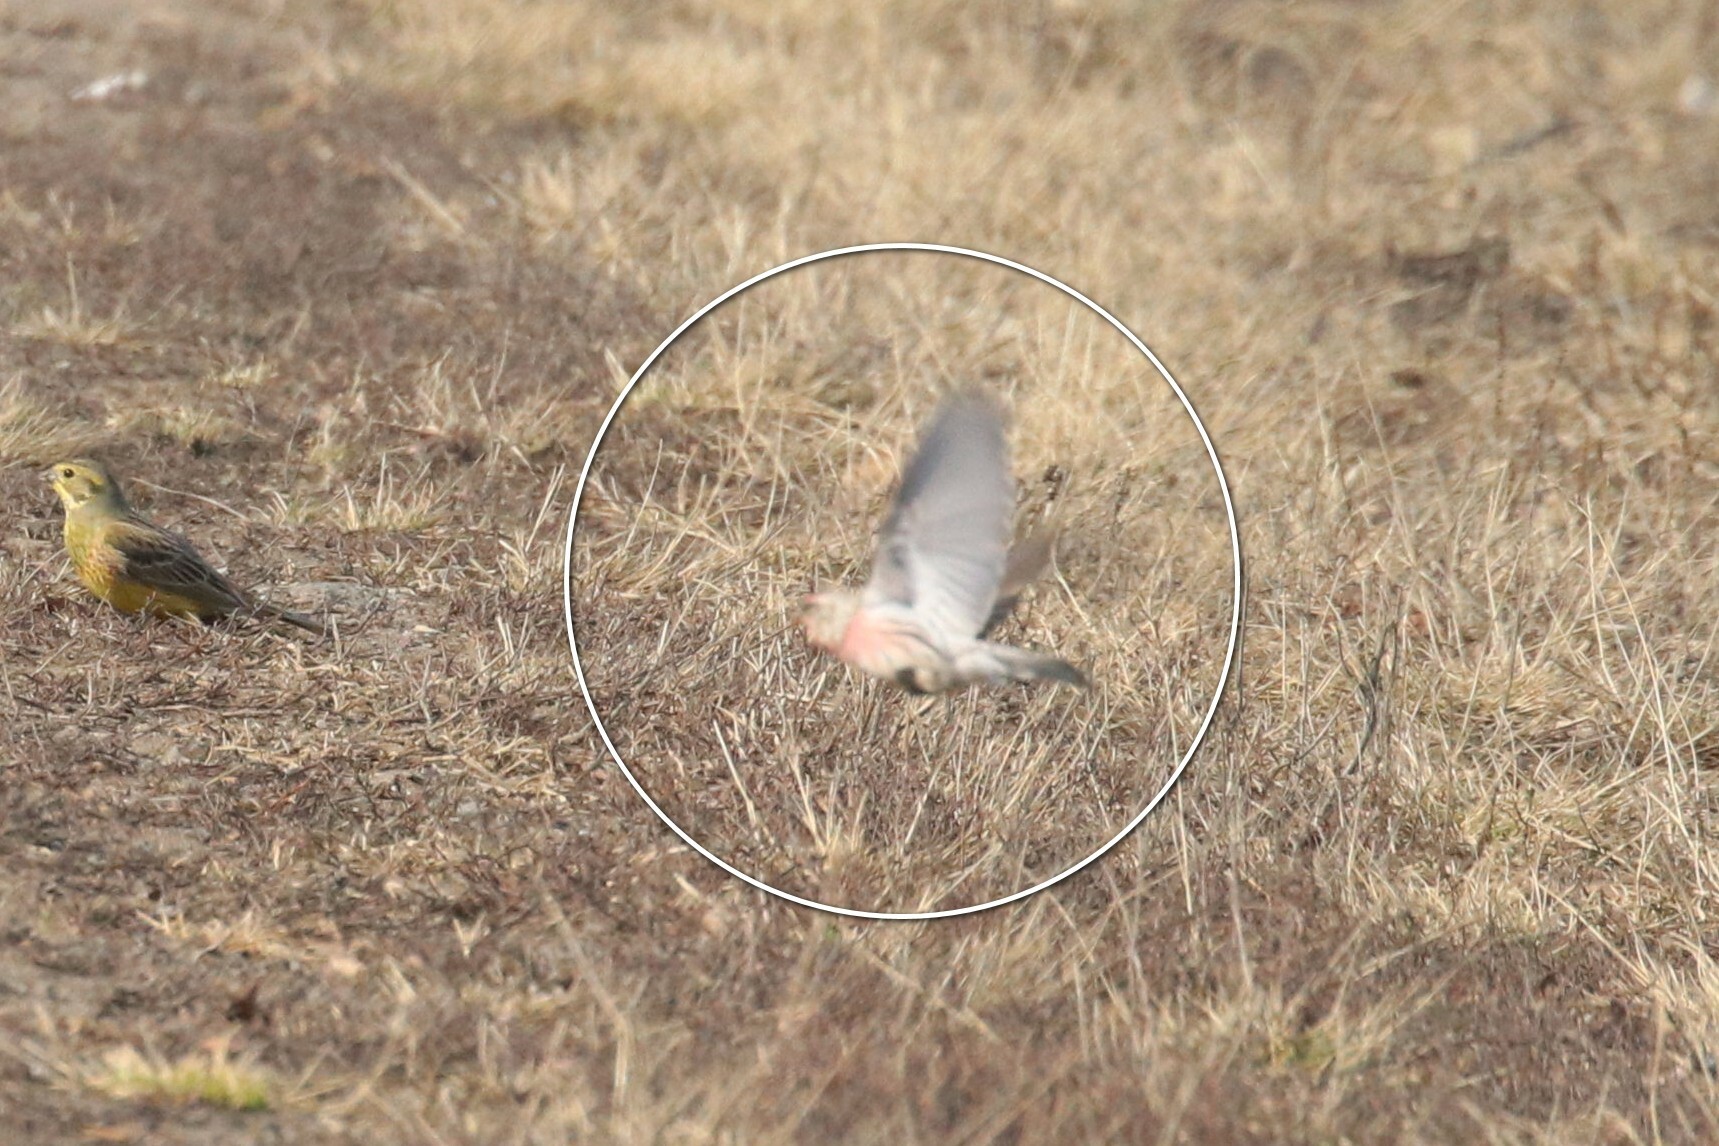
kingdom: Animalia
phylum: Chordata
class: Aves
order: Passeriformes
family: Fringillidae
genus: Acanthis
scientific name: Acanthis hornemanni
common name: Arctic redpoll
